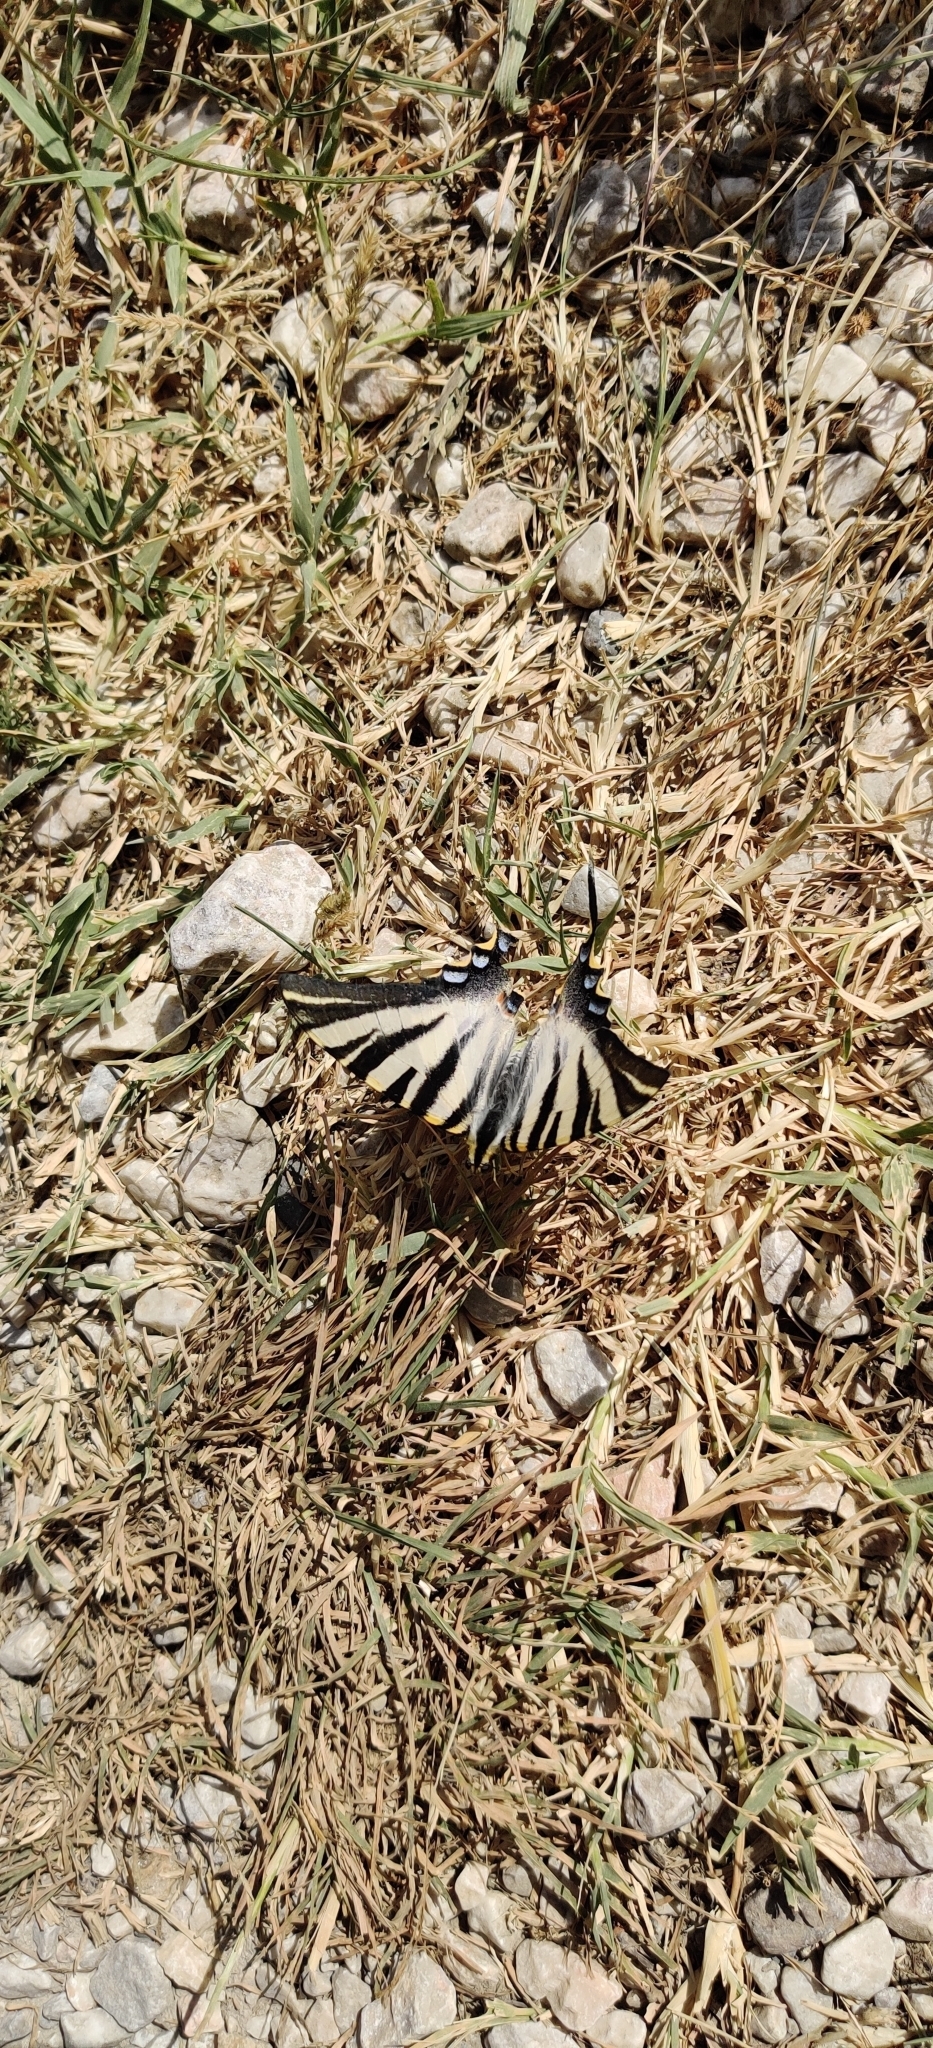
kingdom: Animalia
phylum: Arthropoda
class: Insecta
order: Lepidoptera
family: Papilionidae
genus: Iphiclides
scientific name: Iphiclides feisthamelii
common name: Iberian scarce swallowtail
